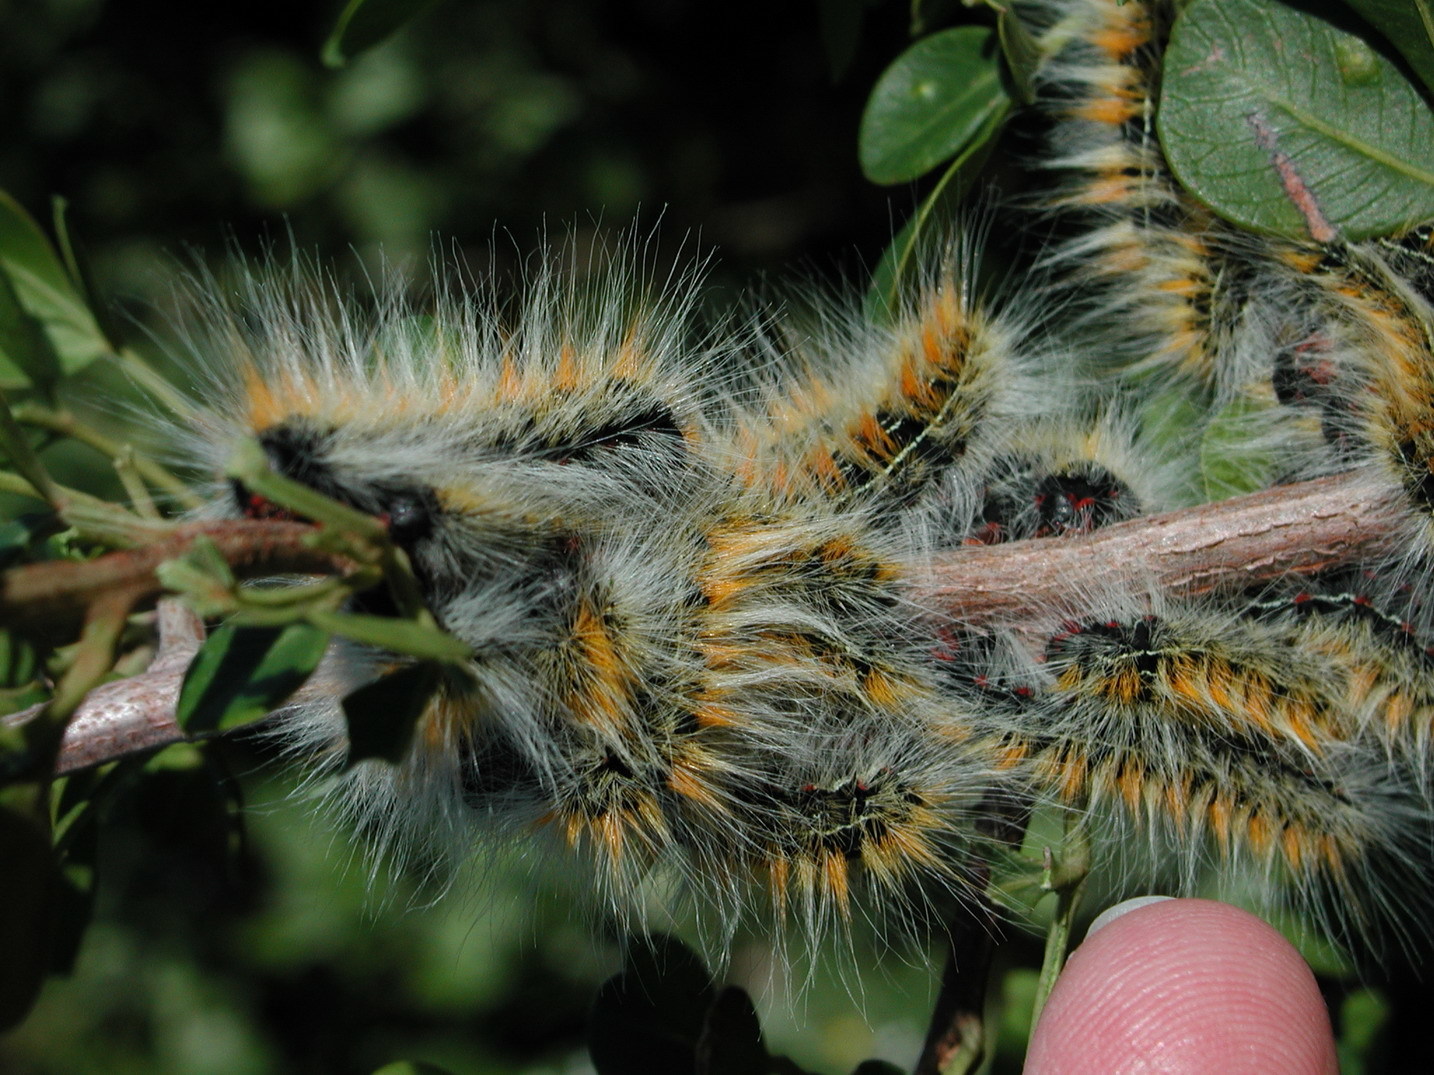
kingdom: Animalia
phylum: Arthropoda
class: Insecta
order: Lepidoptera
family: Lasiocampidae
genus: Bombycomorpha
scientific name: Bombycomorpha bifascia
